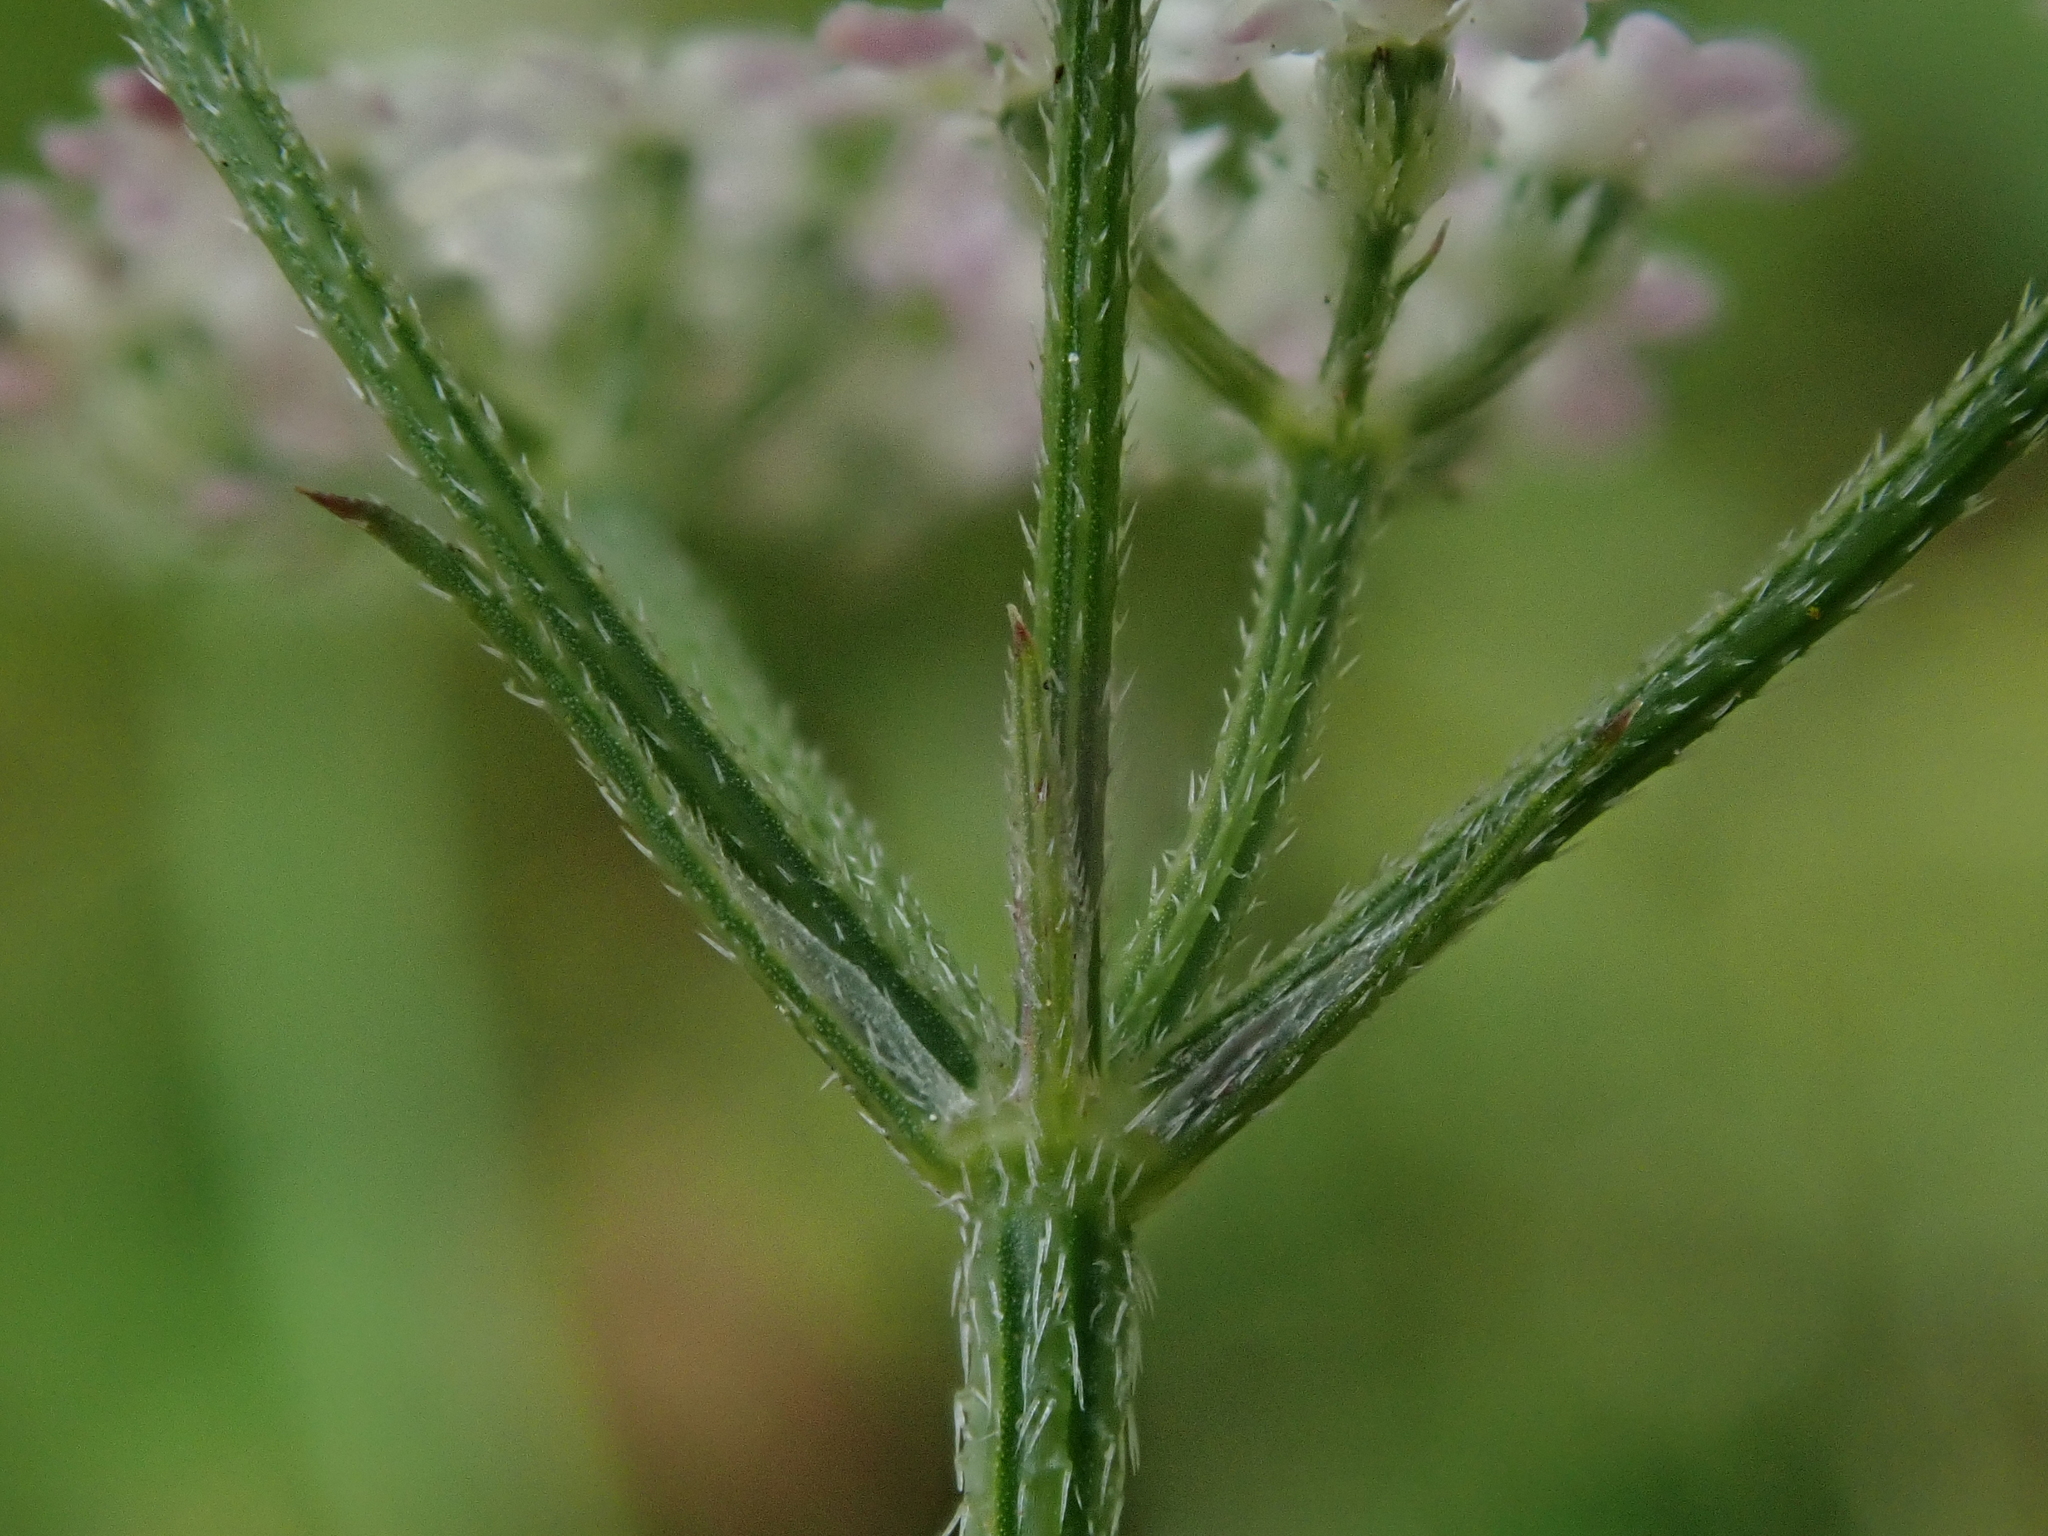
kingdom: Plantae
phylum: Tracheophyta
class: Magnoliopsida
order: Apiales
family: Apiaceae
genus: Torilis
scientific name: Torilis japonica
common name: Upright hedge-parsley
